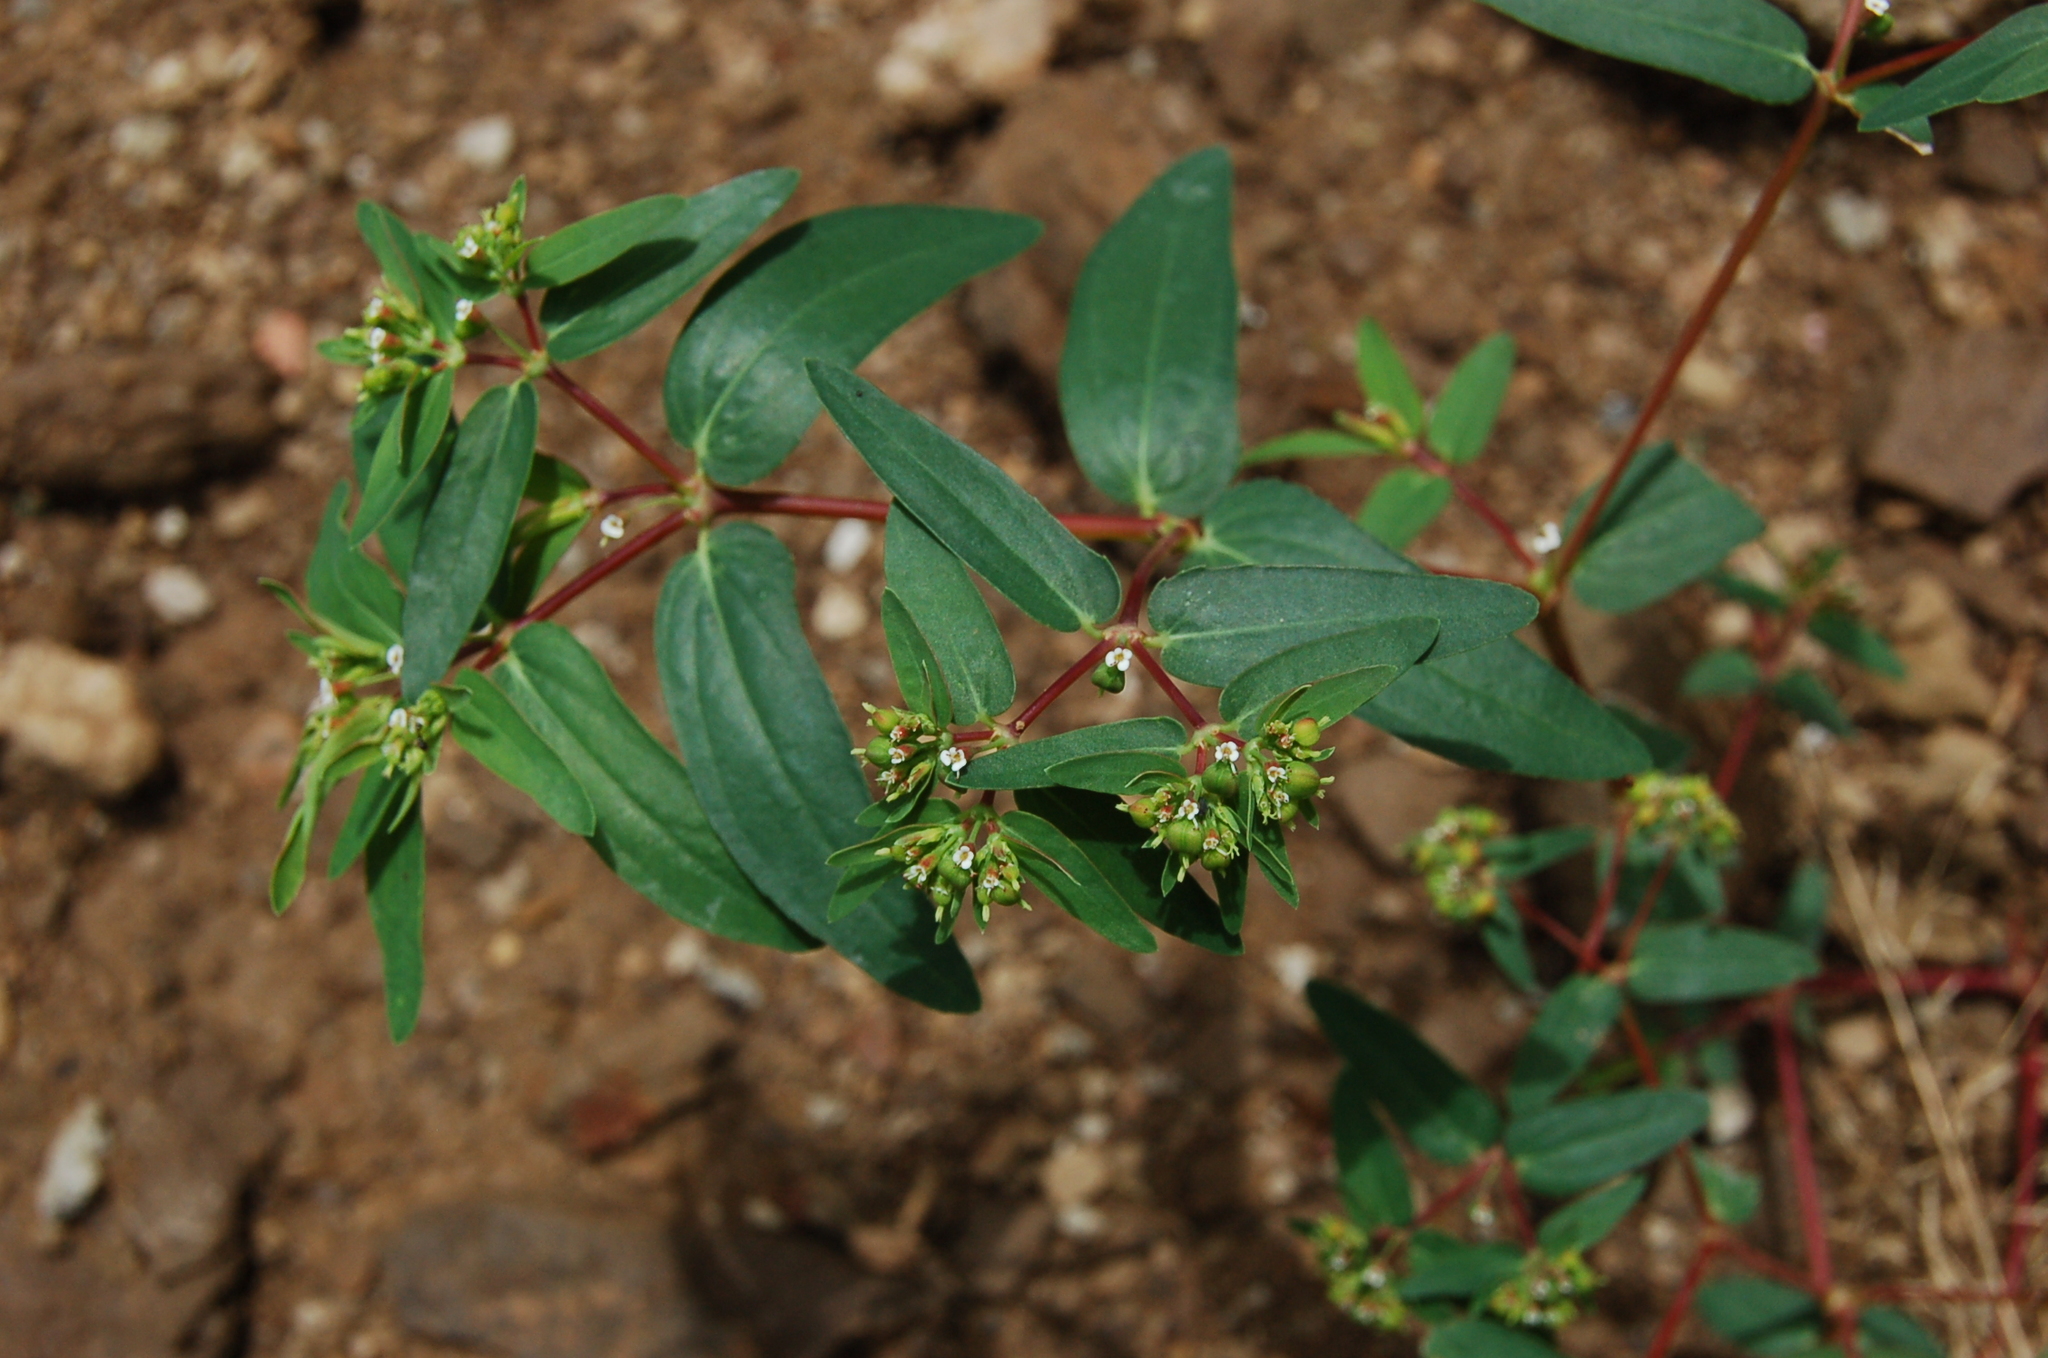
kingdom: Plantae
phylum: Tracheophyta
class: Magnoliopsida
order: Malpighiales
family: Euphorbiaceae
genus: Euphorbia
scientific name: Euphorbia hyssopifolia
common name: Hyssopleaf sandmat
